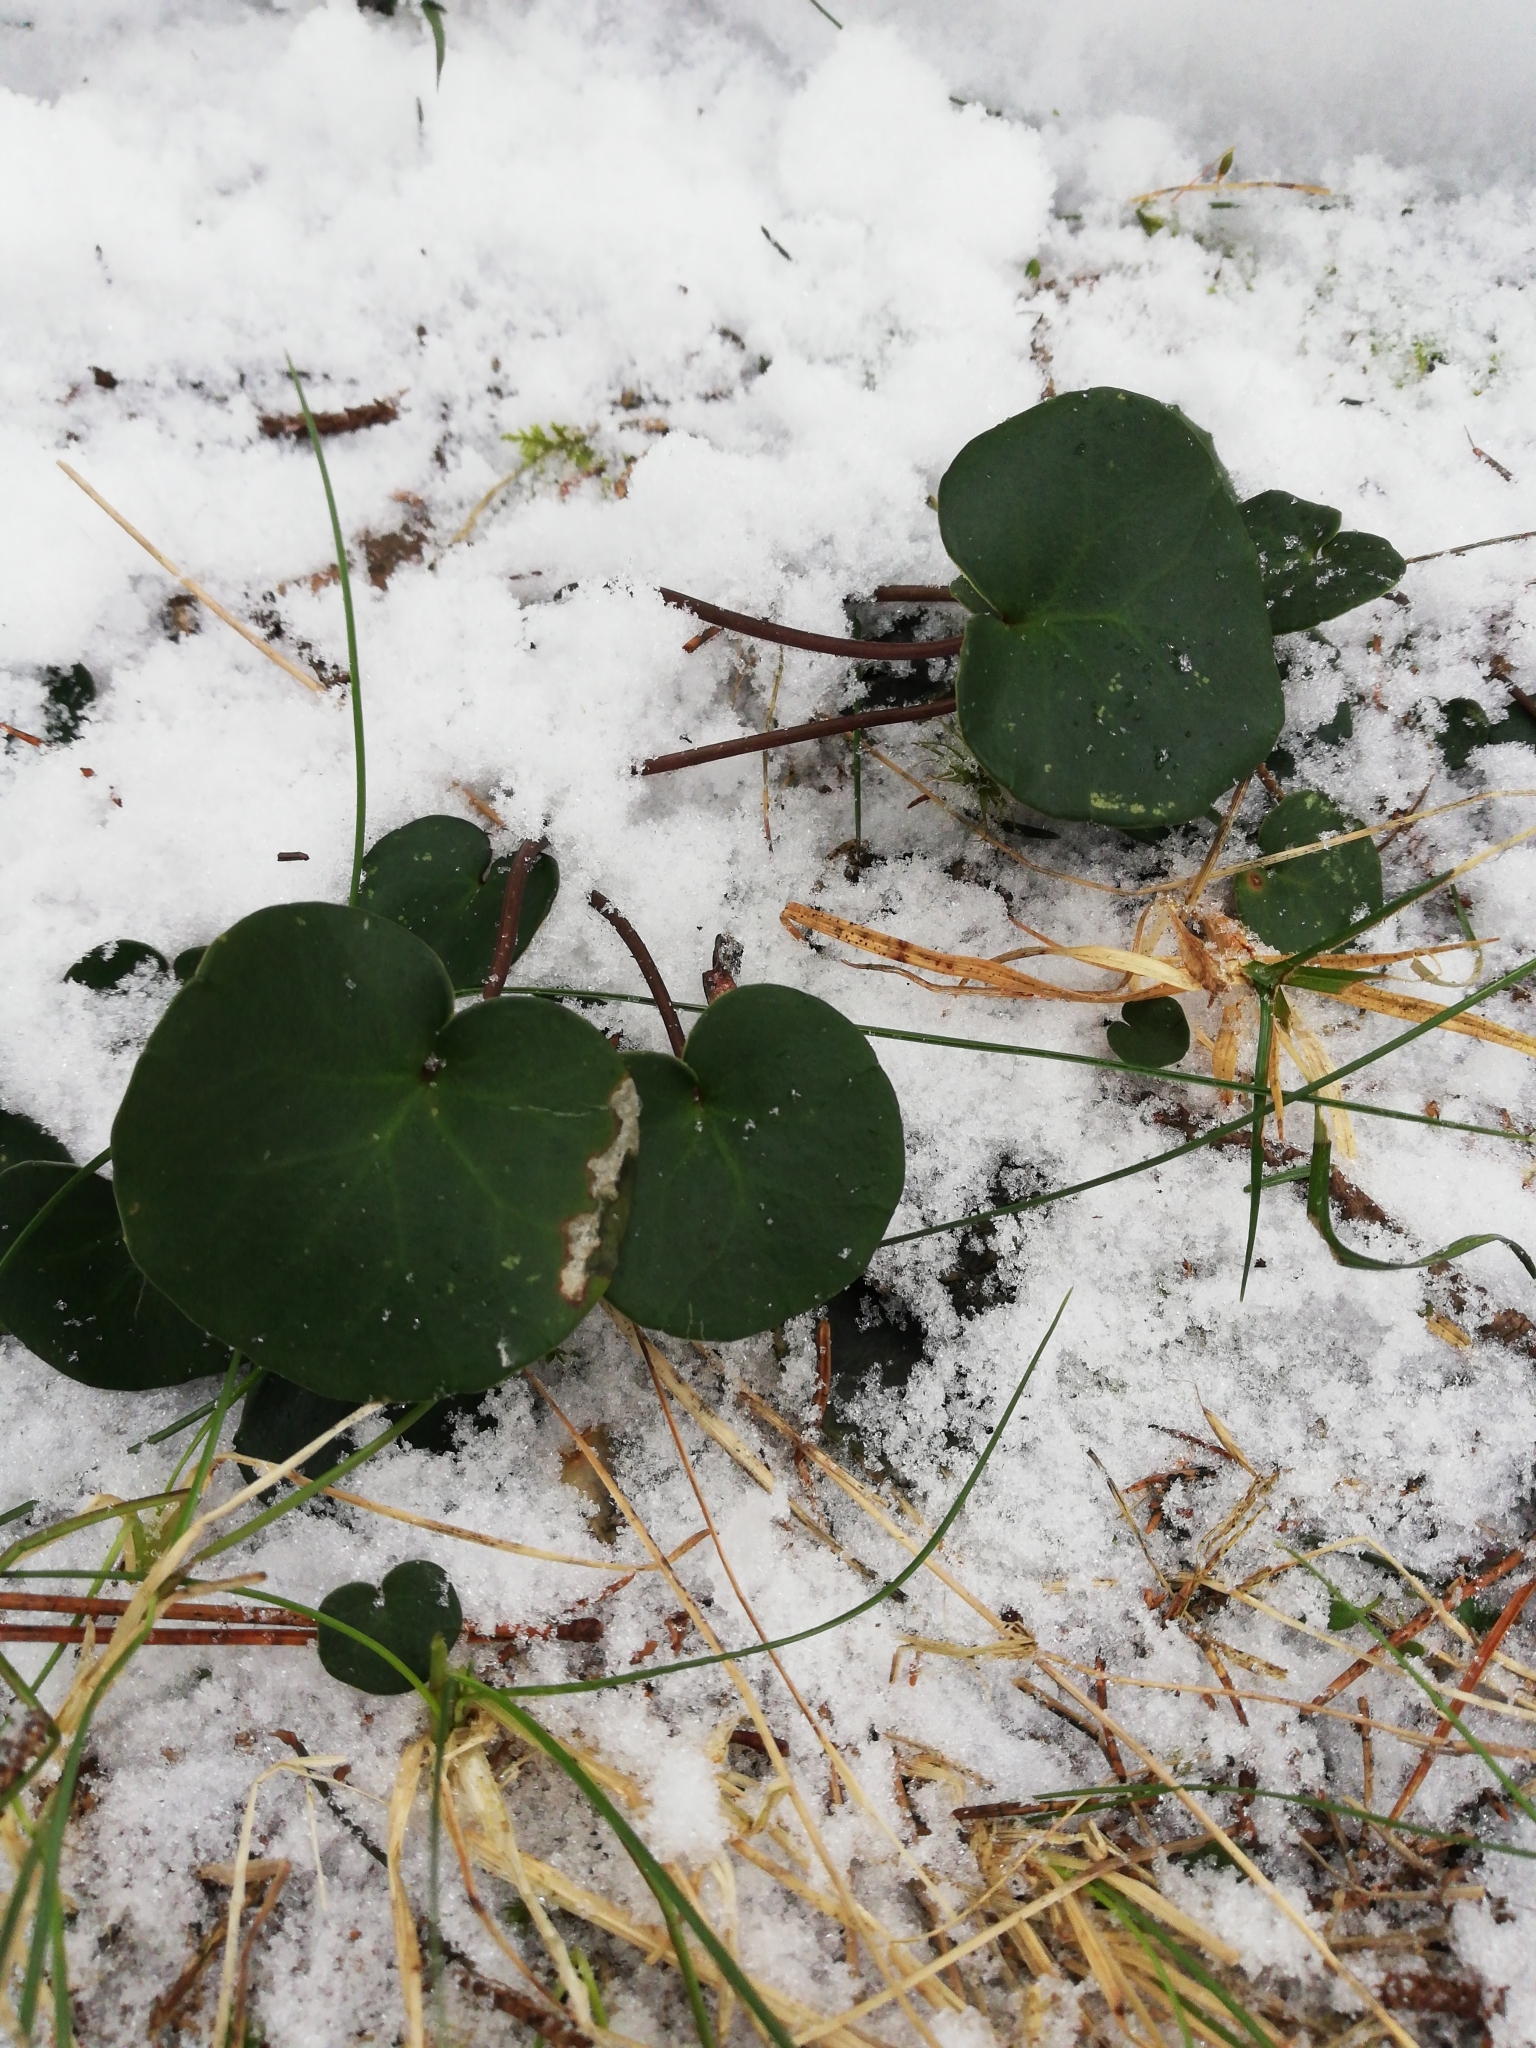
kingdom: Plantae
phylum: Tracheophyta
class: Magnoliopsida
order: Piperales
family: Aristolochiaceae
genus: Asarum
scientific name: Asarum europaeum
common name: Asarabacca
